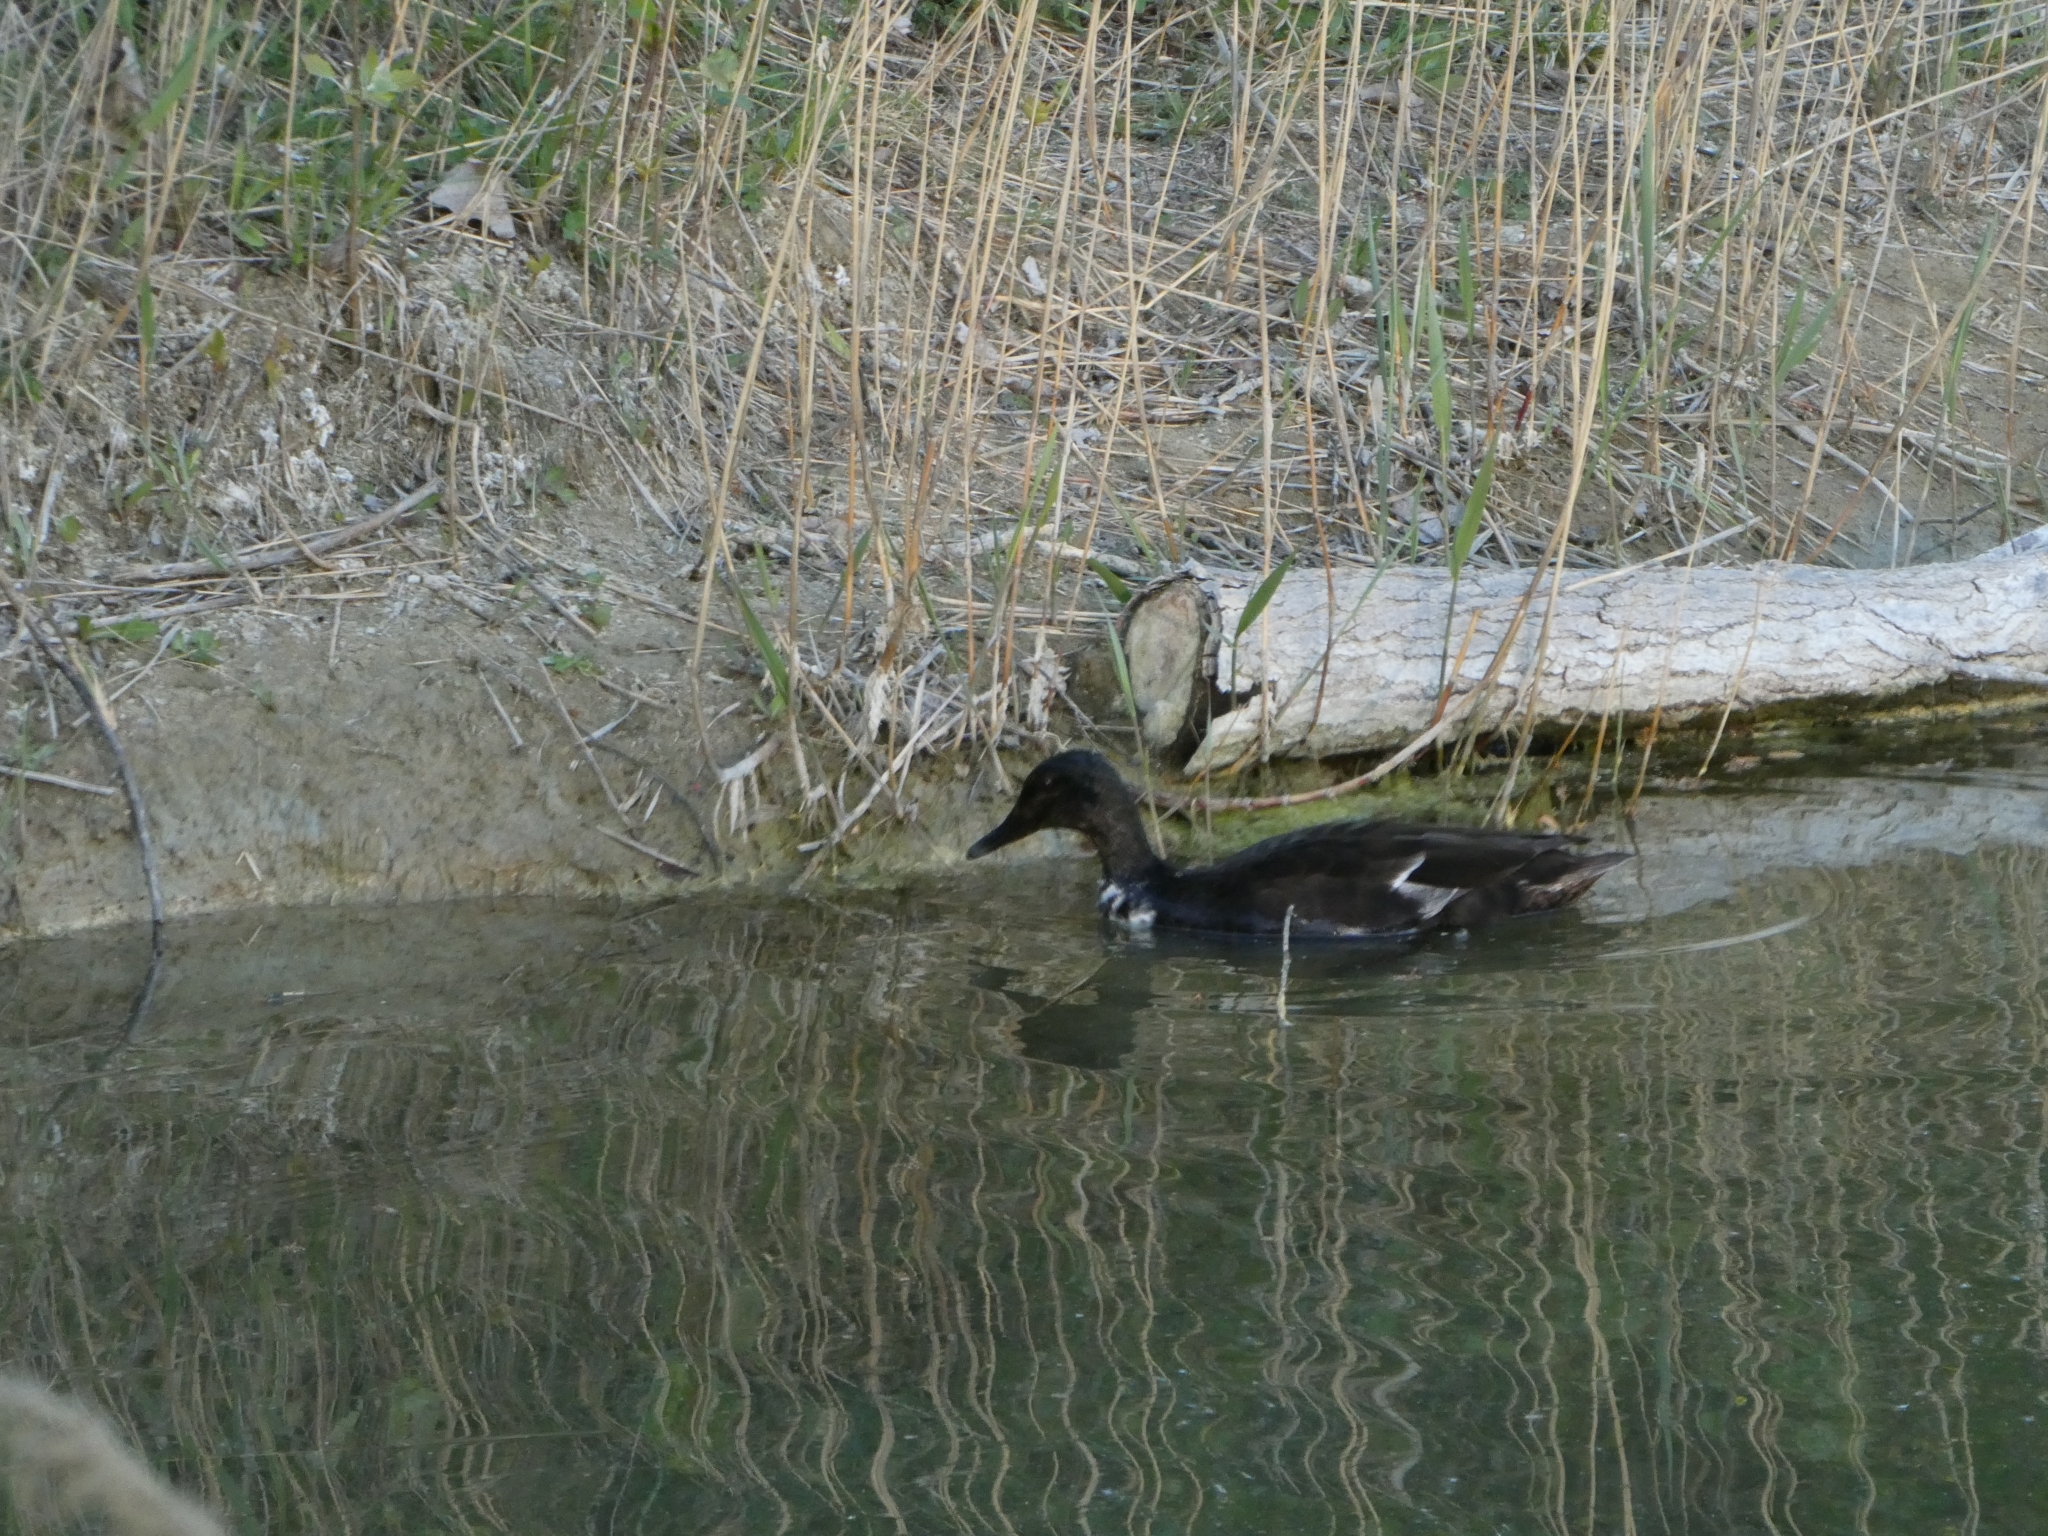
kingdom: Animalia
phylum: Chordata
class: Aves
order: Anseriformes
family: Anatidae
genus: Anas
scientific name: Anas platyrhynchos
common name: Mallard
